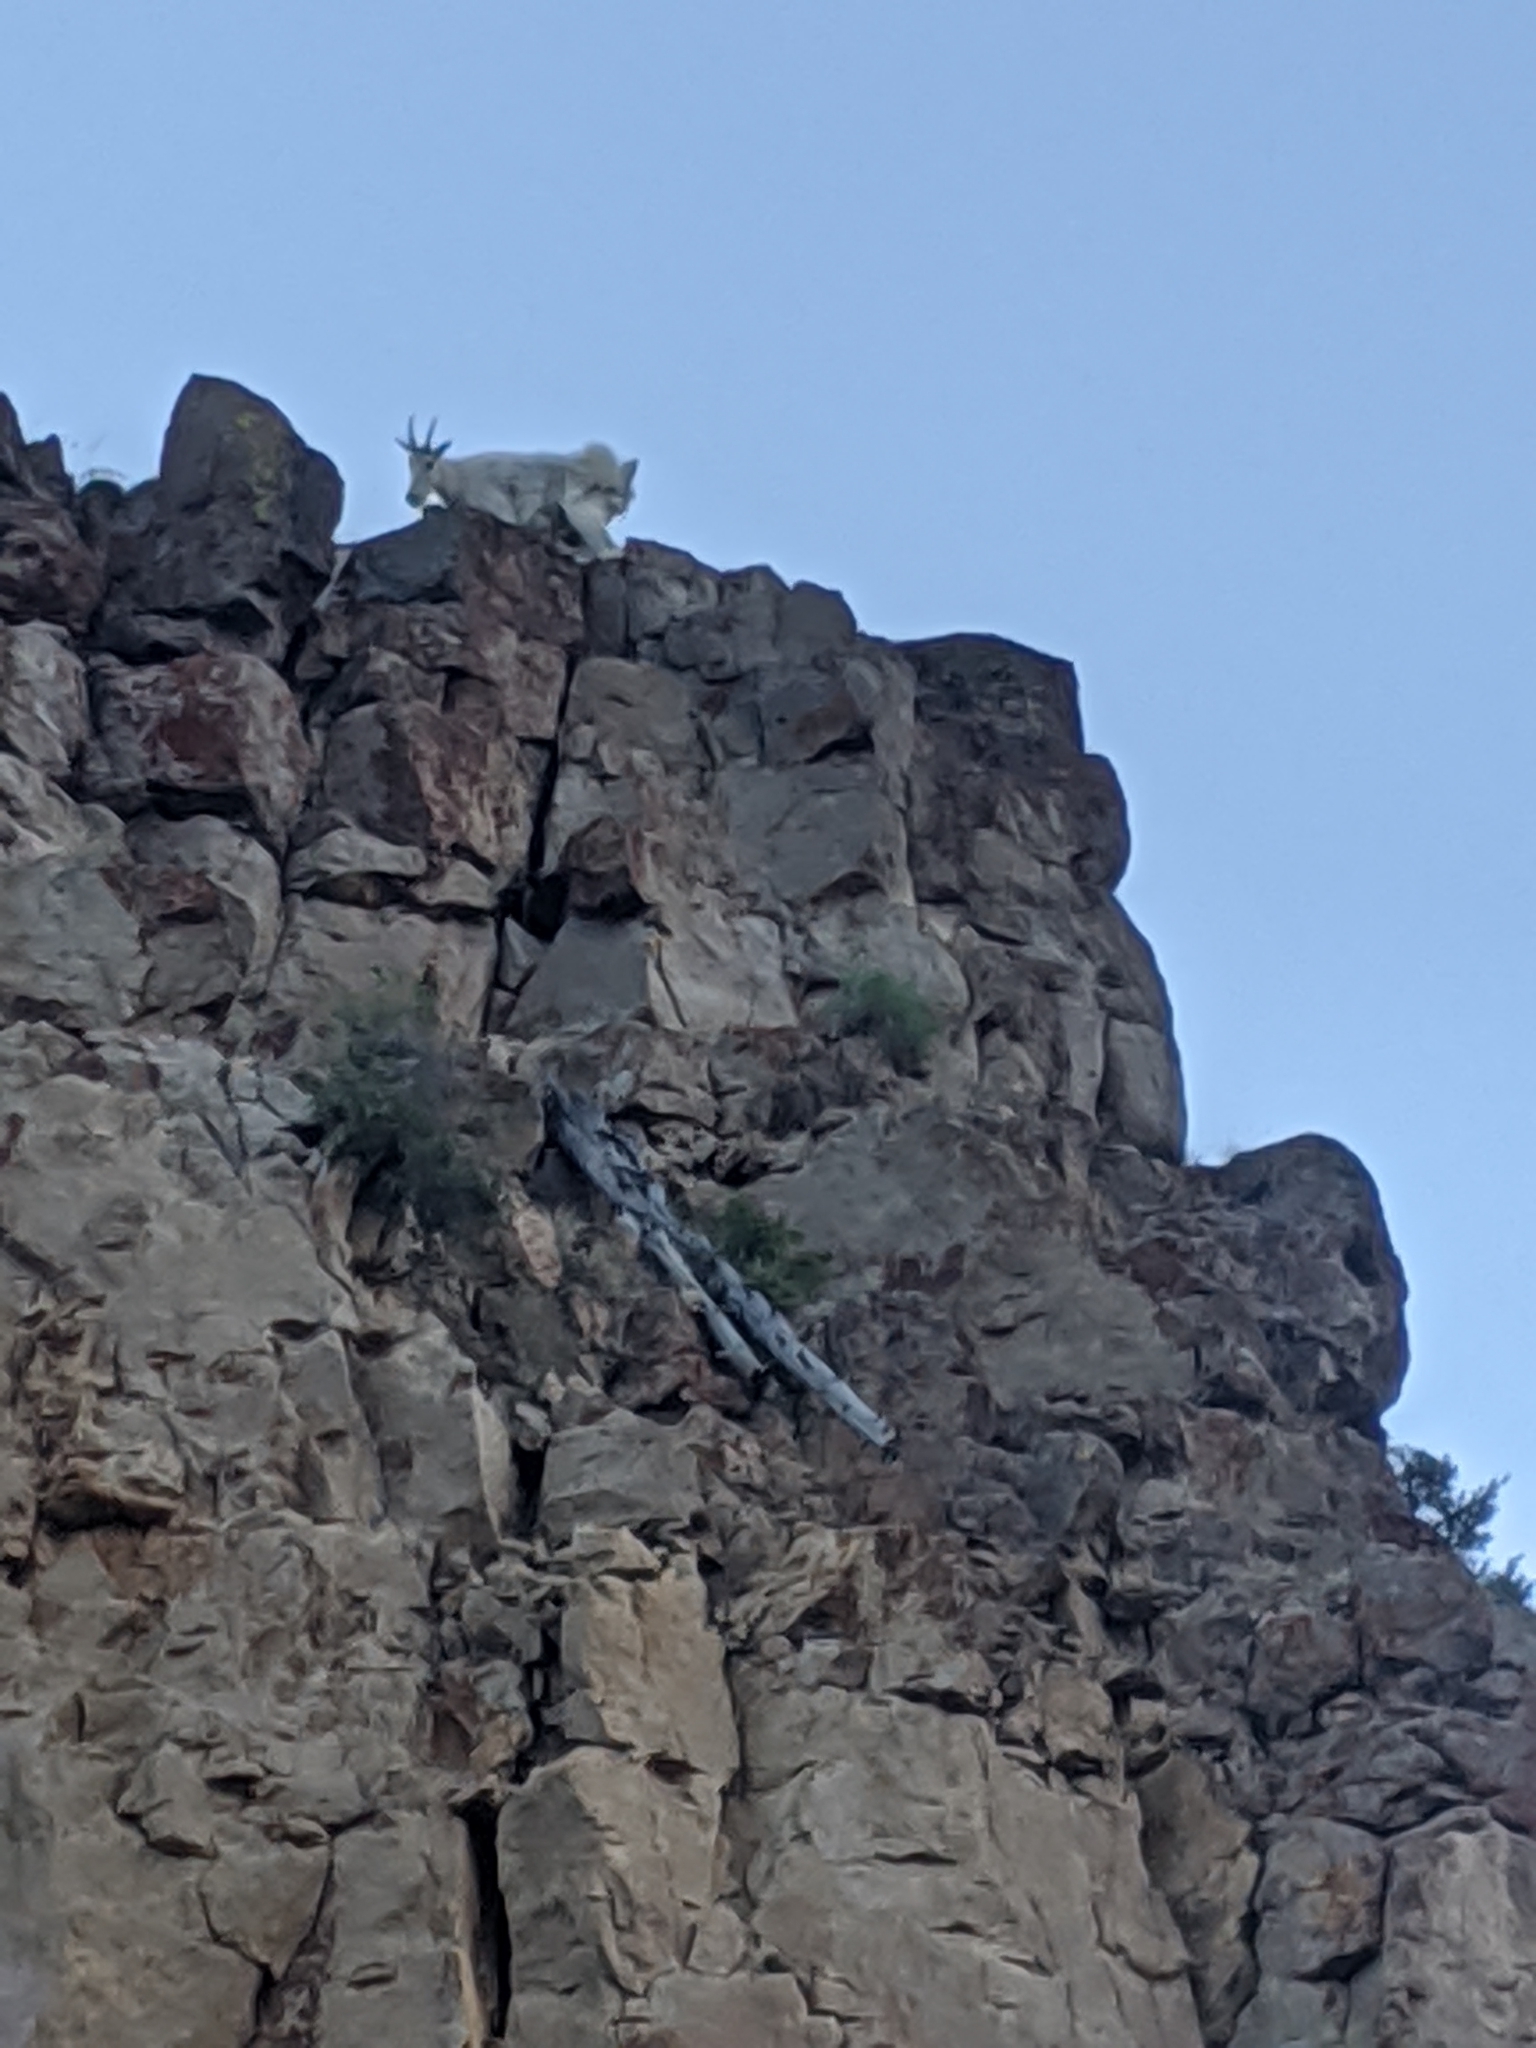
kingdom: Animalia
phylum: Chordata
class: Mammalia
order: Artiodactyla
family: Bovidae
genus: Oreamnos
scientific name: Oreamnos americanus
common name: Mountain goat
